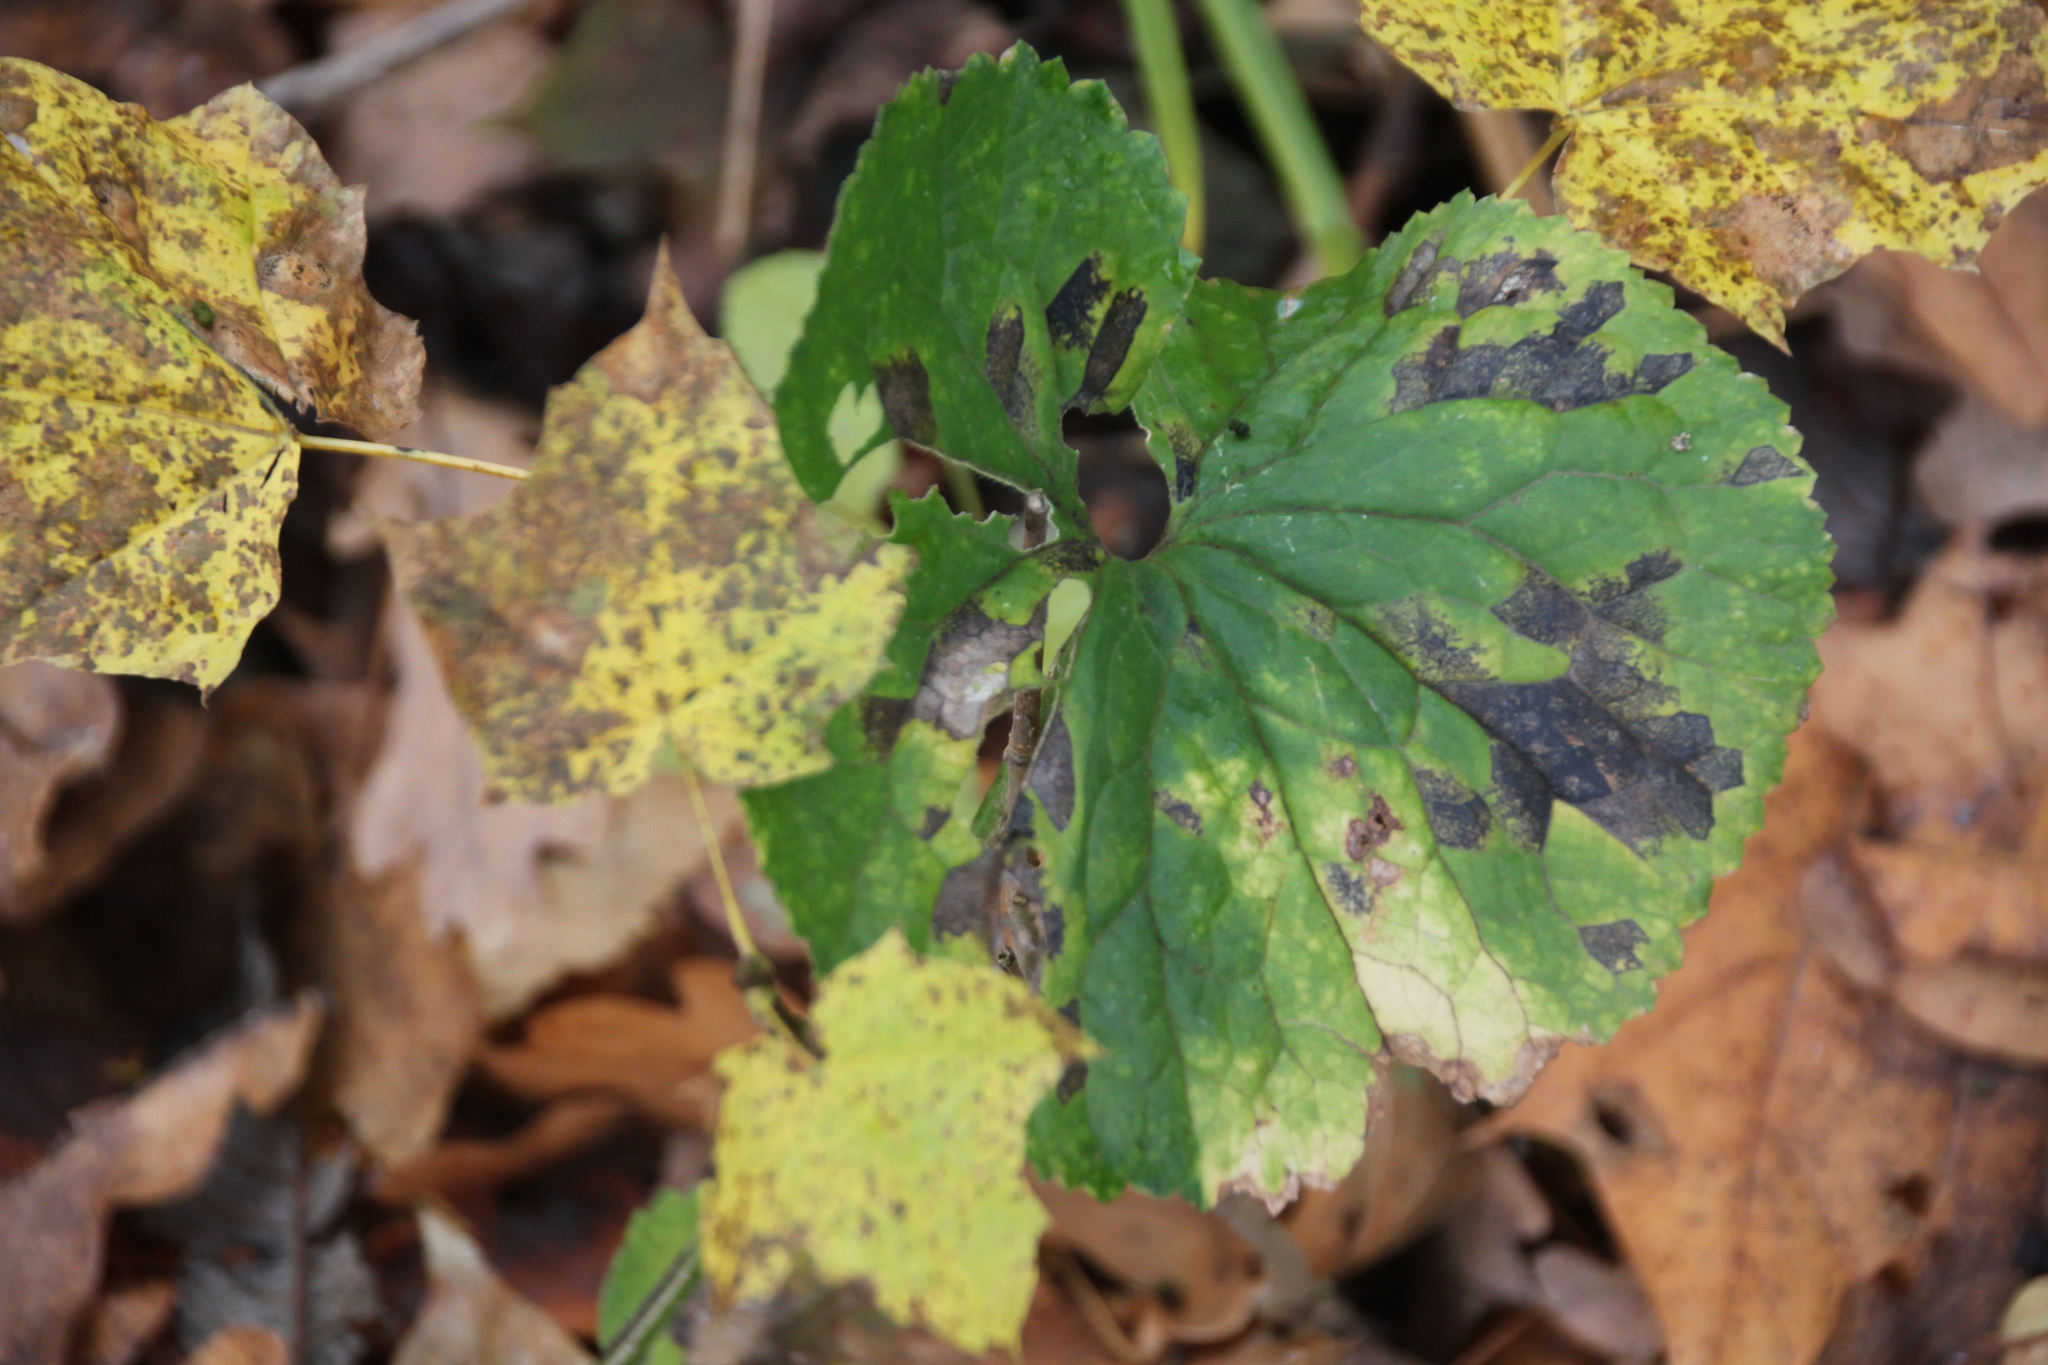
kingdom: Plantae
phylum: Tracheophyta
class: Magnoliopsida
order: Ranunculales
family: Ranunculaceae
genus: Ranunculus
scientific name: Ranunculus cassubicus
